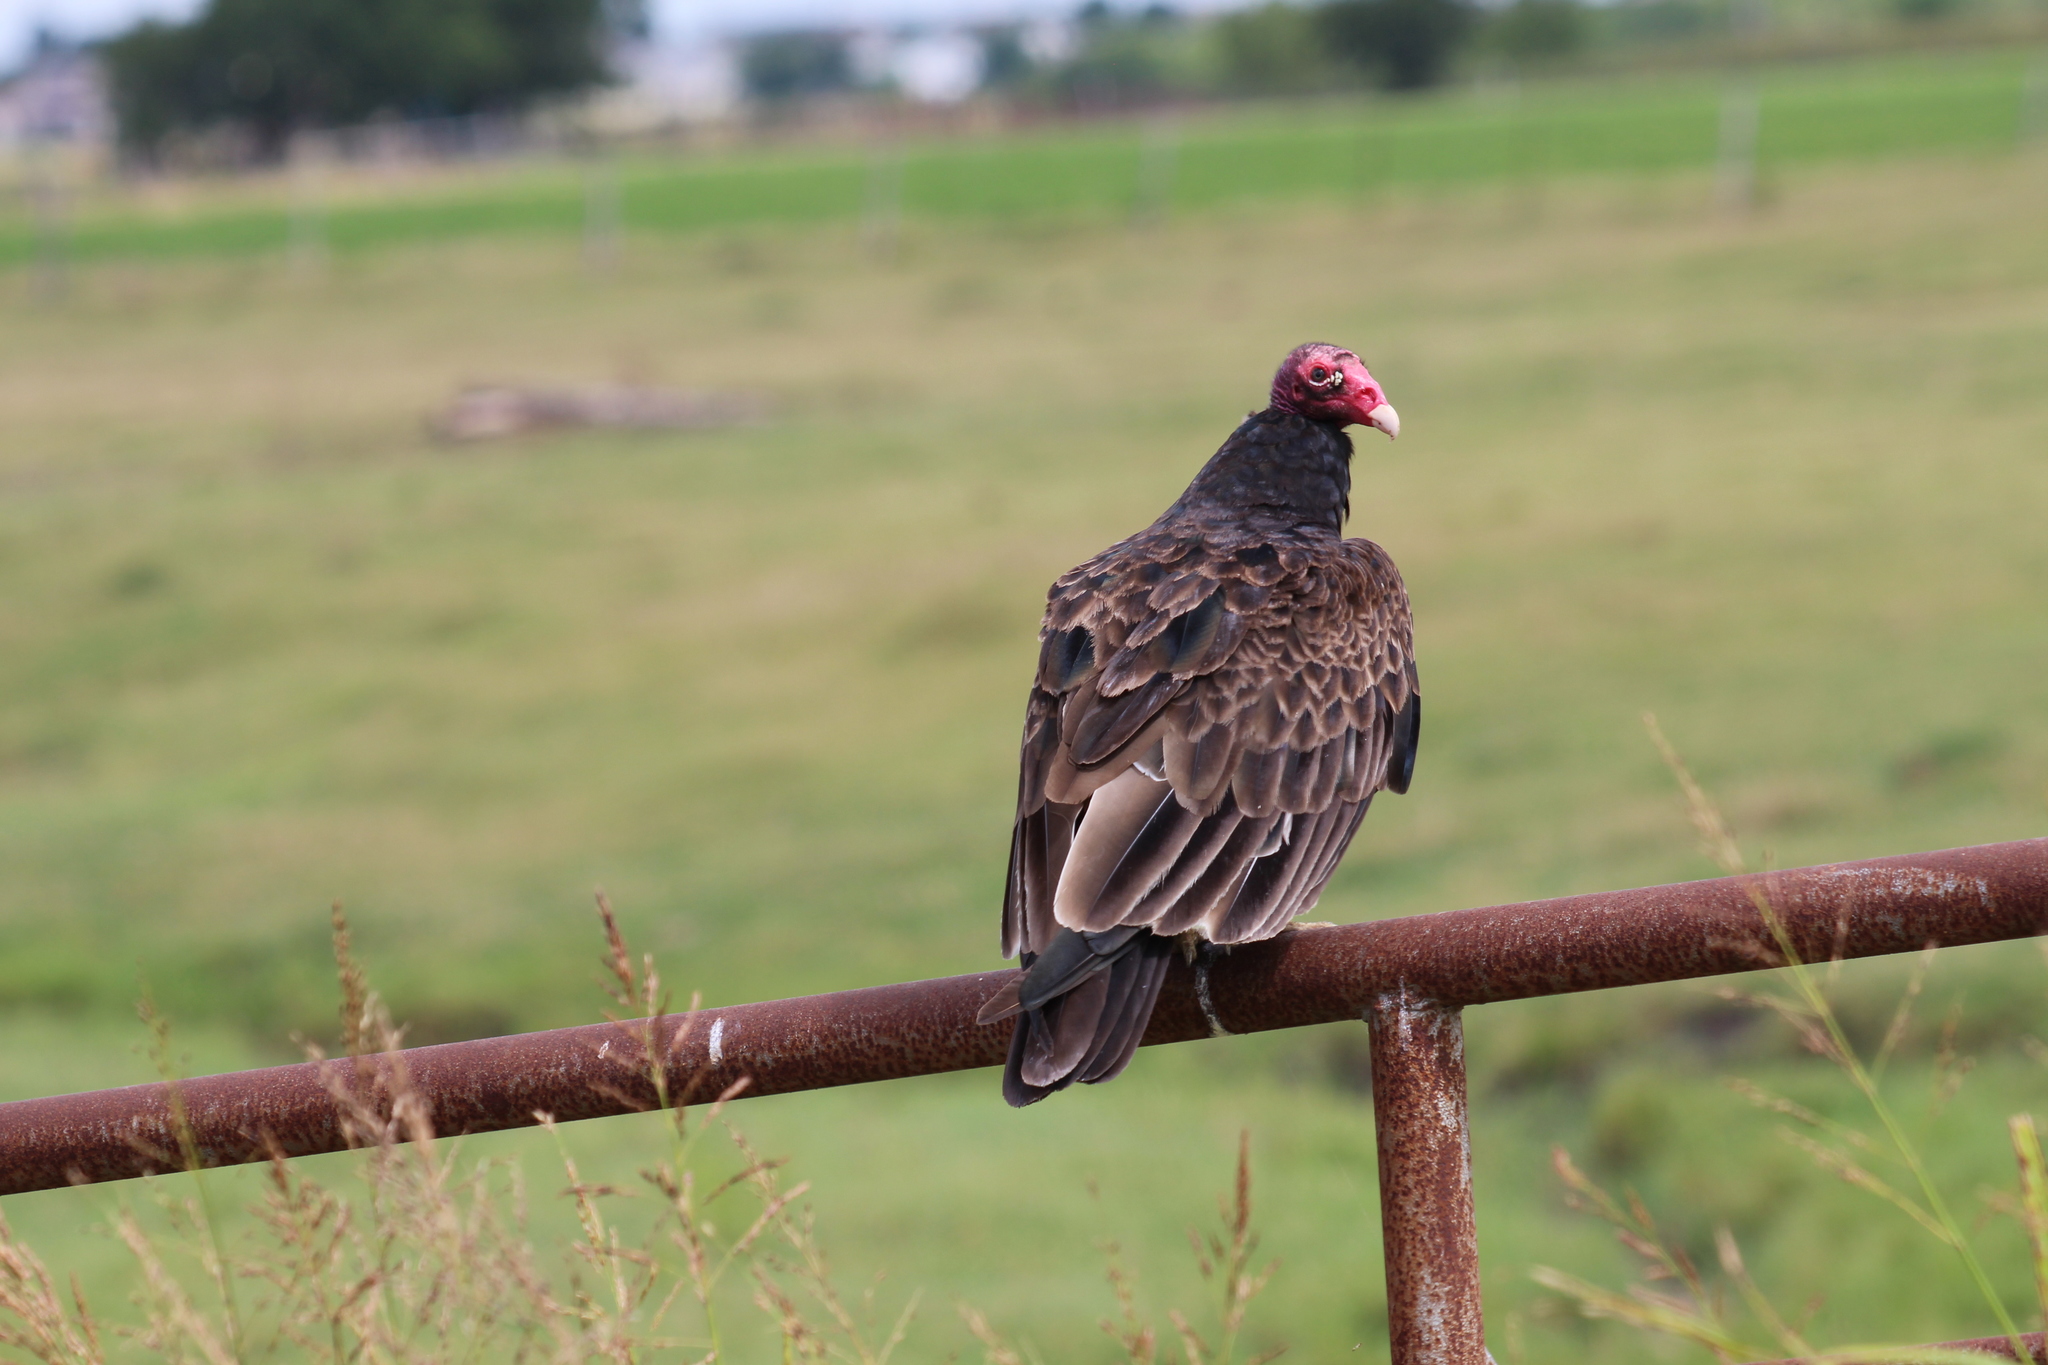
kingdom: Animalia
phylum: Chordata
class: Aves
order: Accipitriformes
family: Cathartidae
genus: Cathartes
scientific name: Cathartes aura
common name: Turkey vulture
